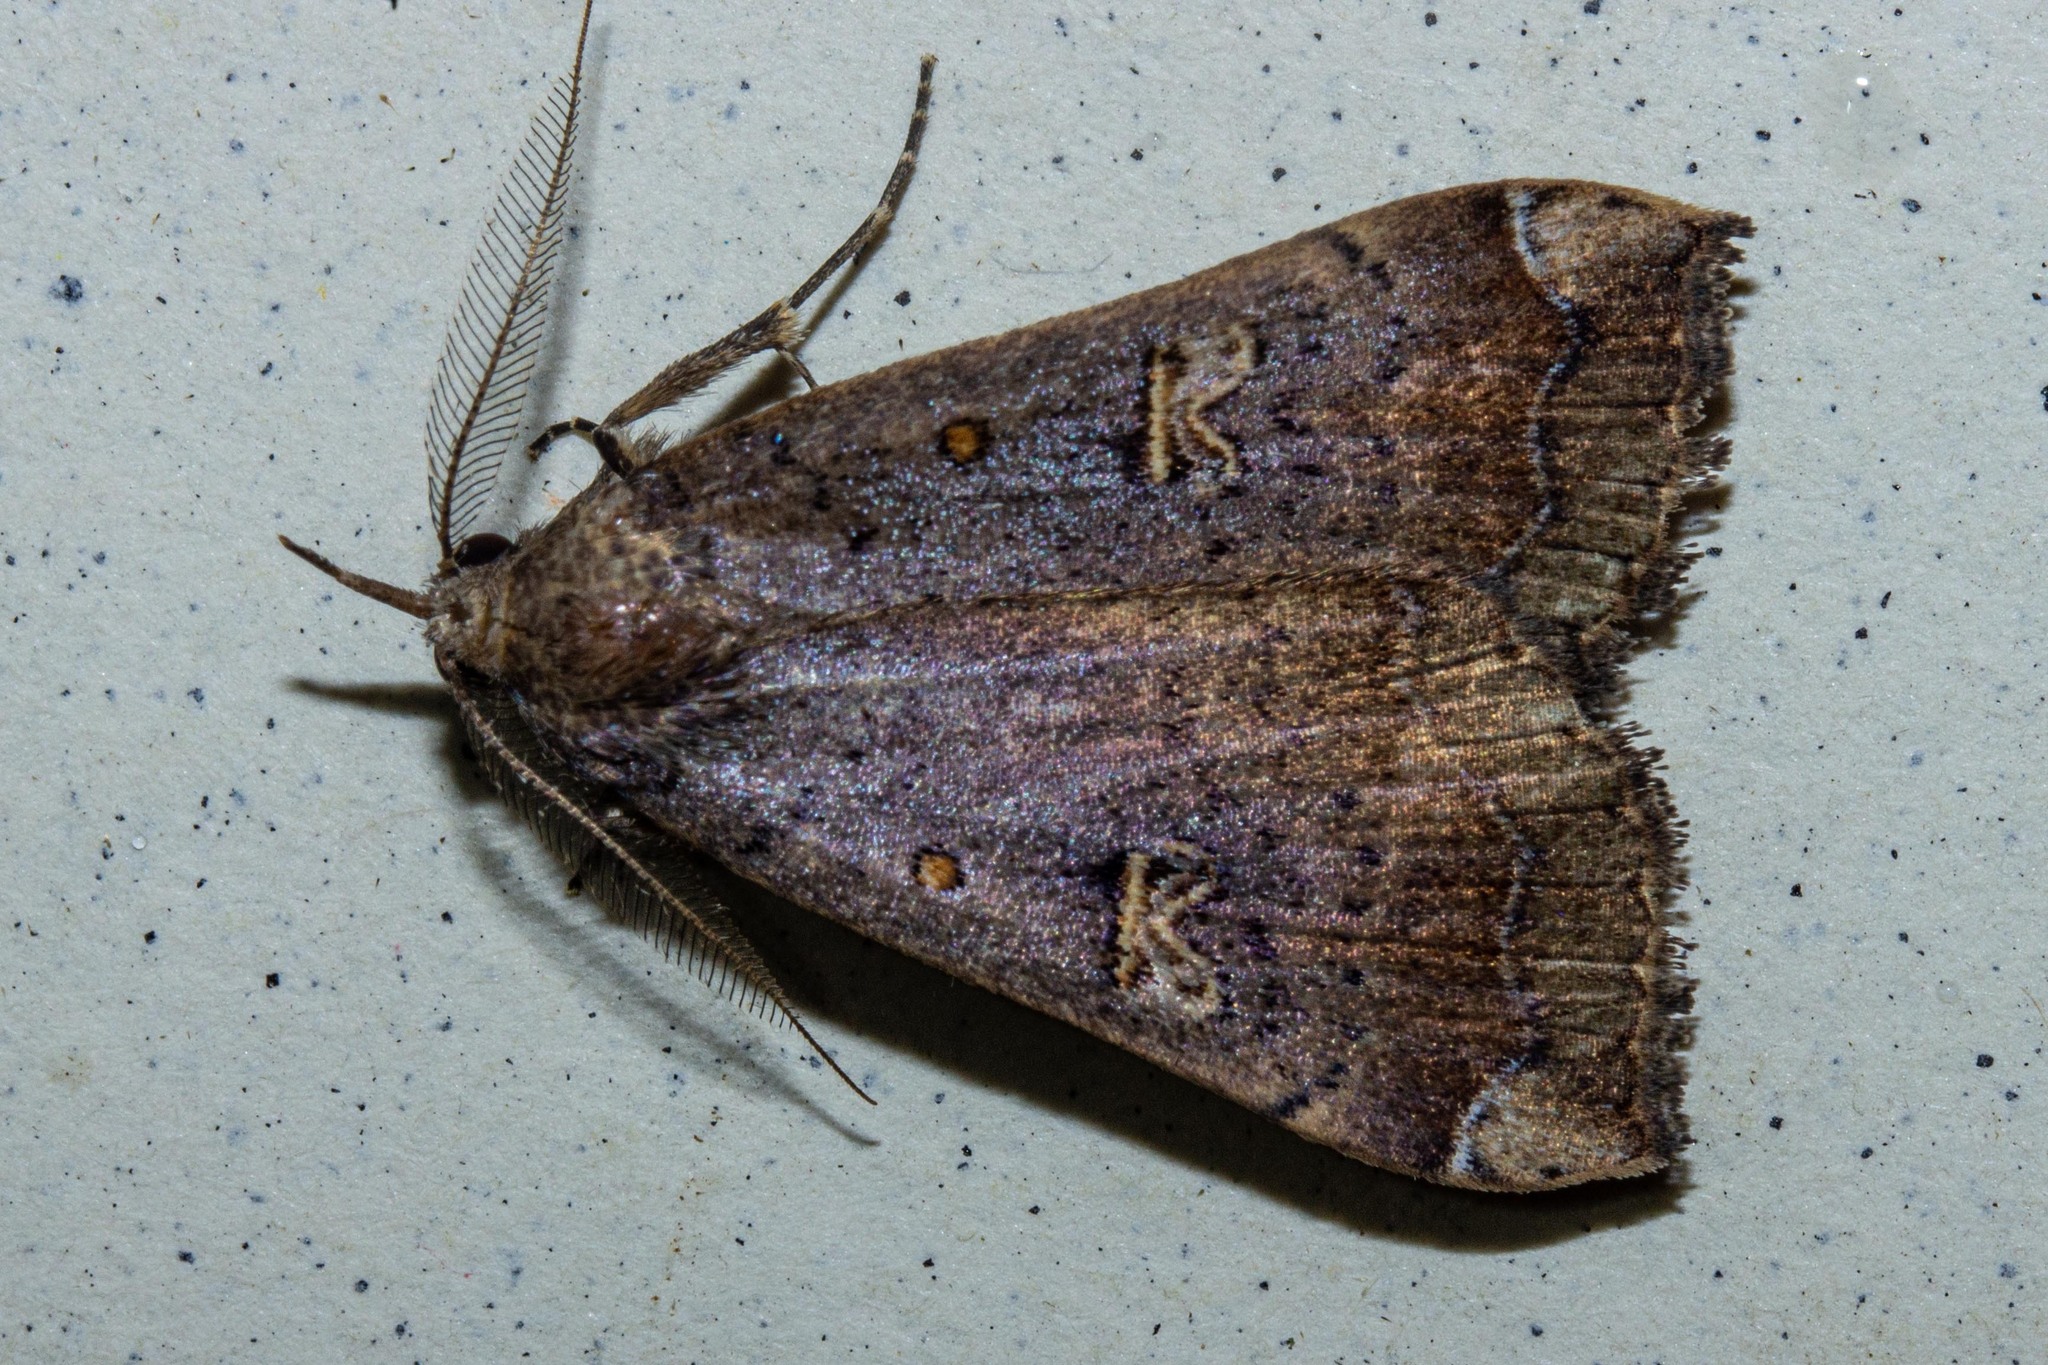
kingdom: Animalia
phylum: Arthropoda
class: Insecta
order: Lepidoptera
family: Erebidae
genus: Rhapsa
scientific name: Rhapsa scotosialis
